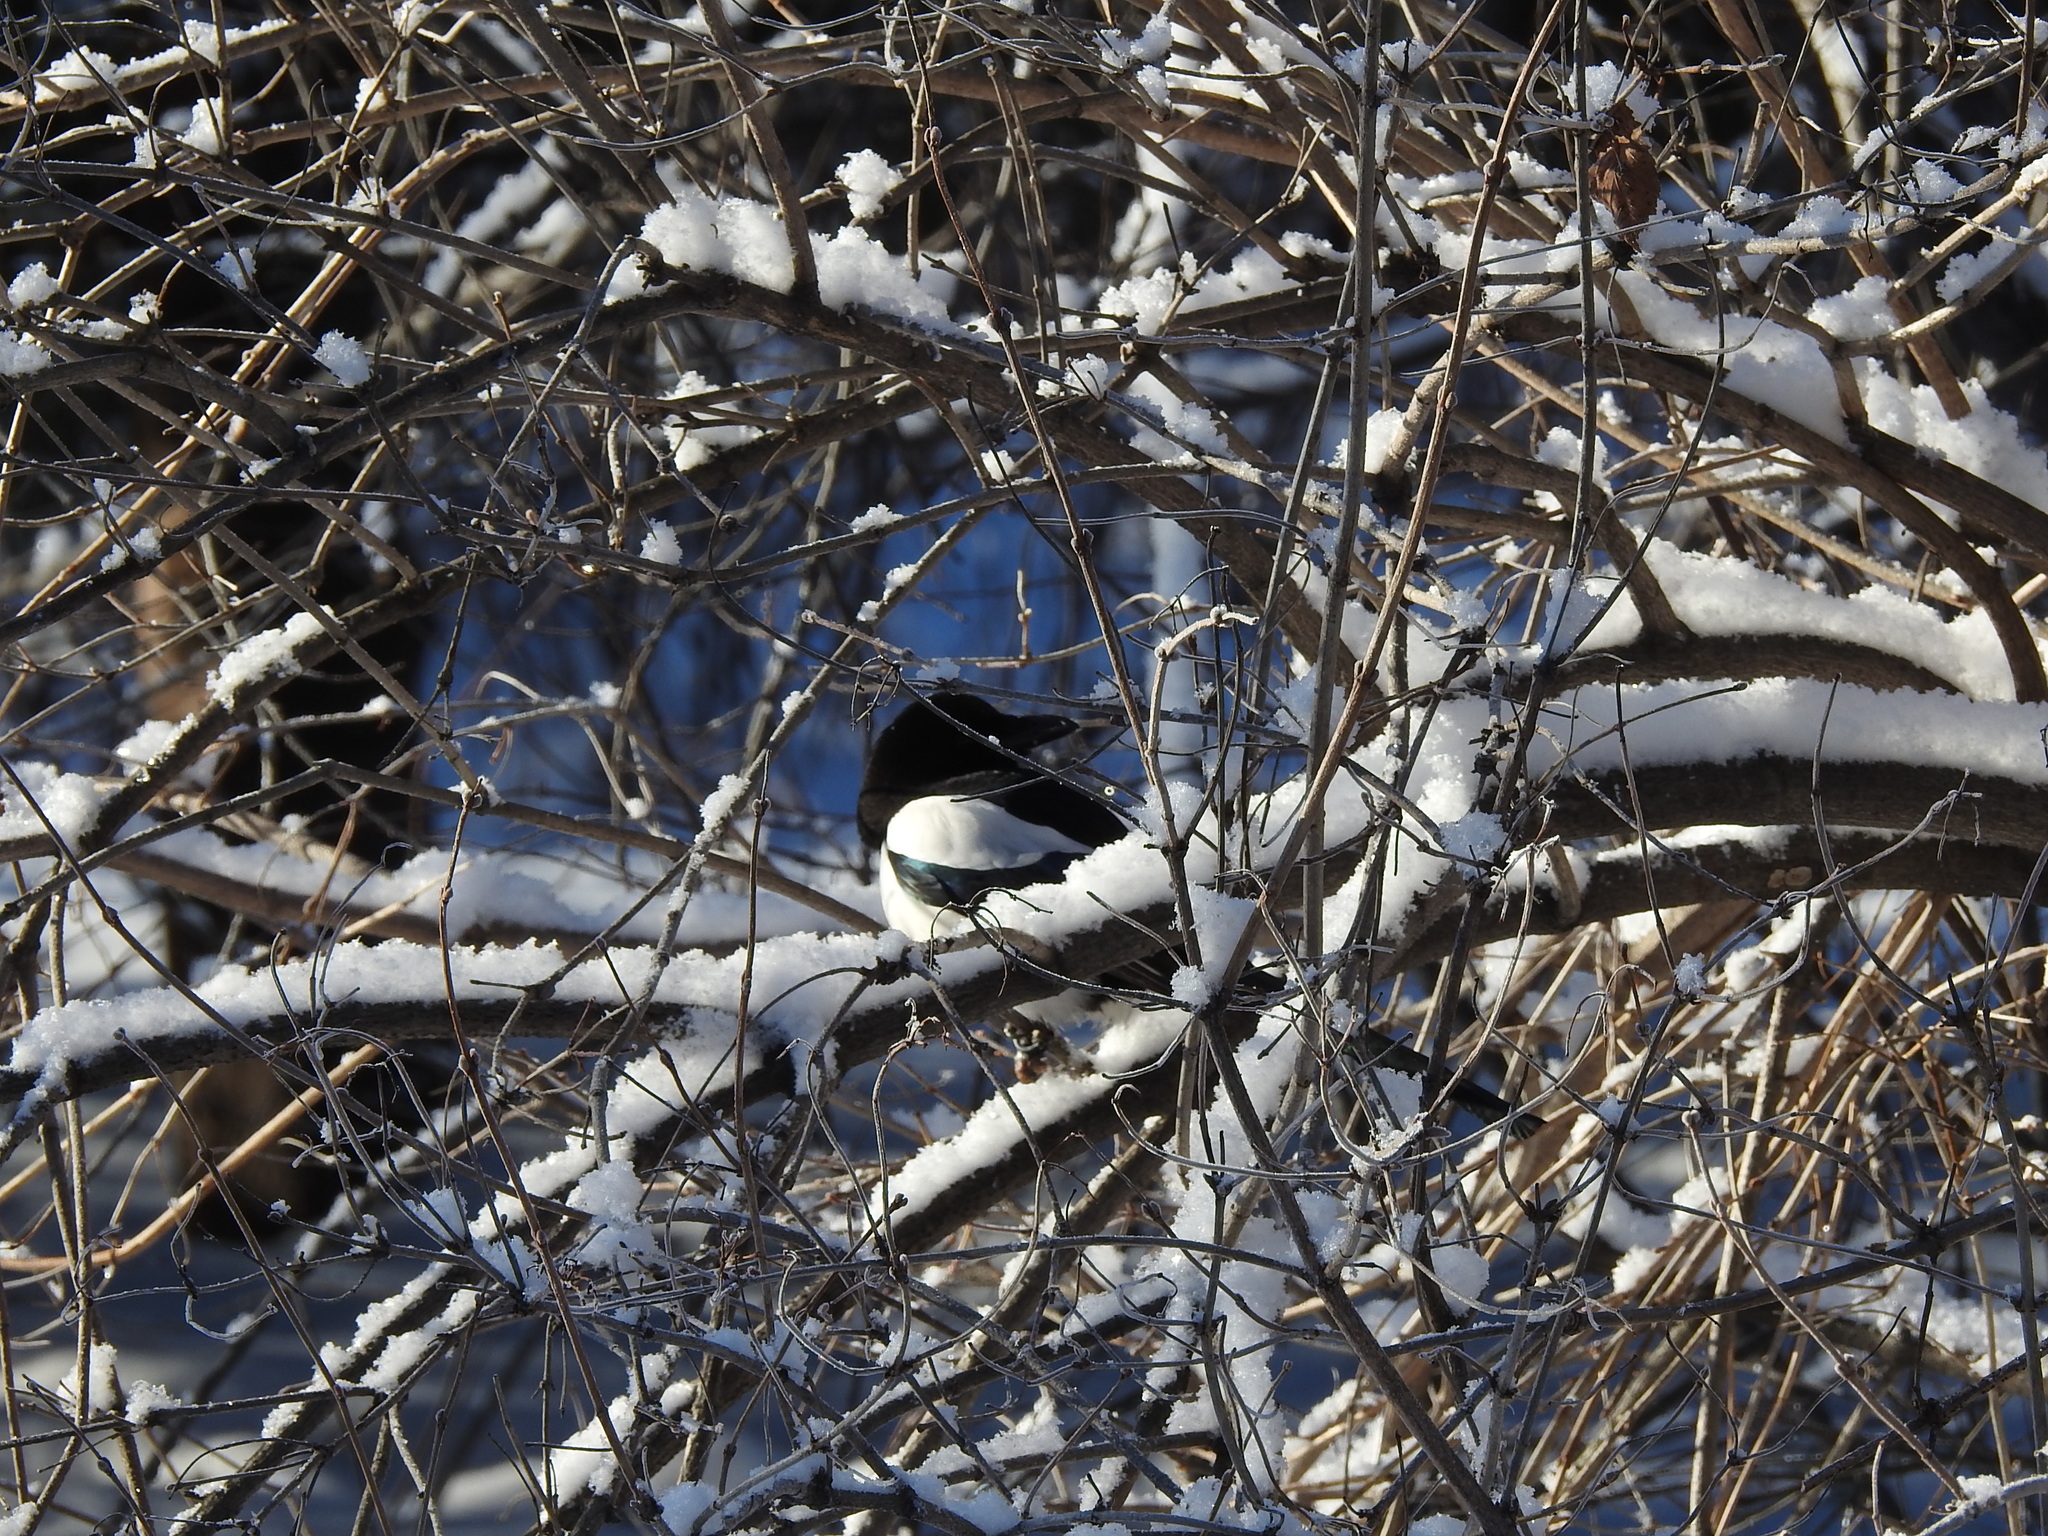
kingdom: Animalia
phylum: Chordata
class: Aves
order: Passeriformes
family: Corvidae
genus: Pica
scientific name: Pica pica
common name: Eurasian magpie
